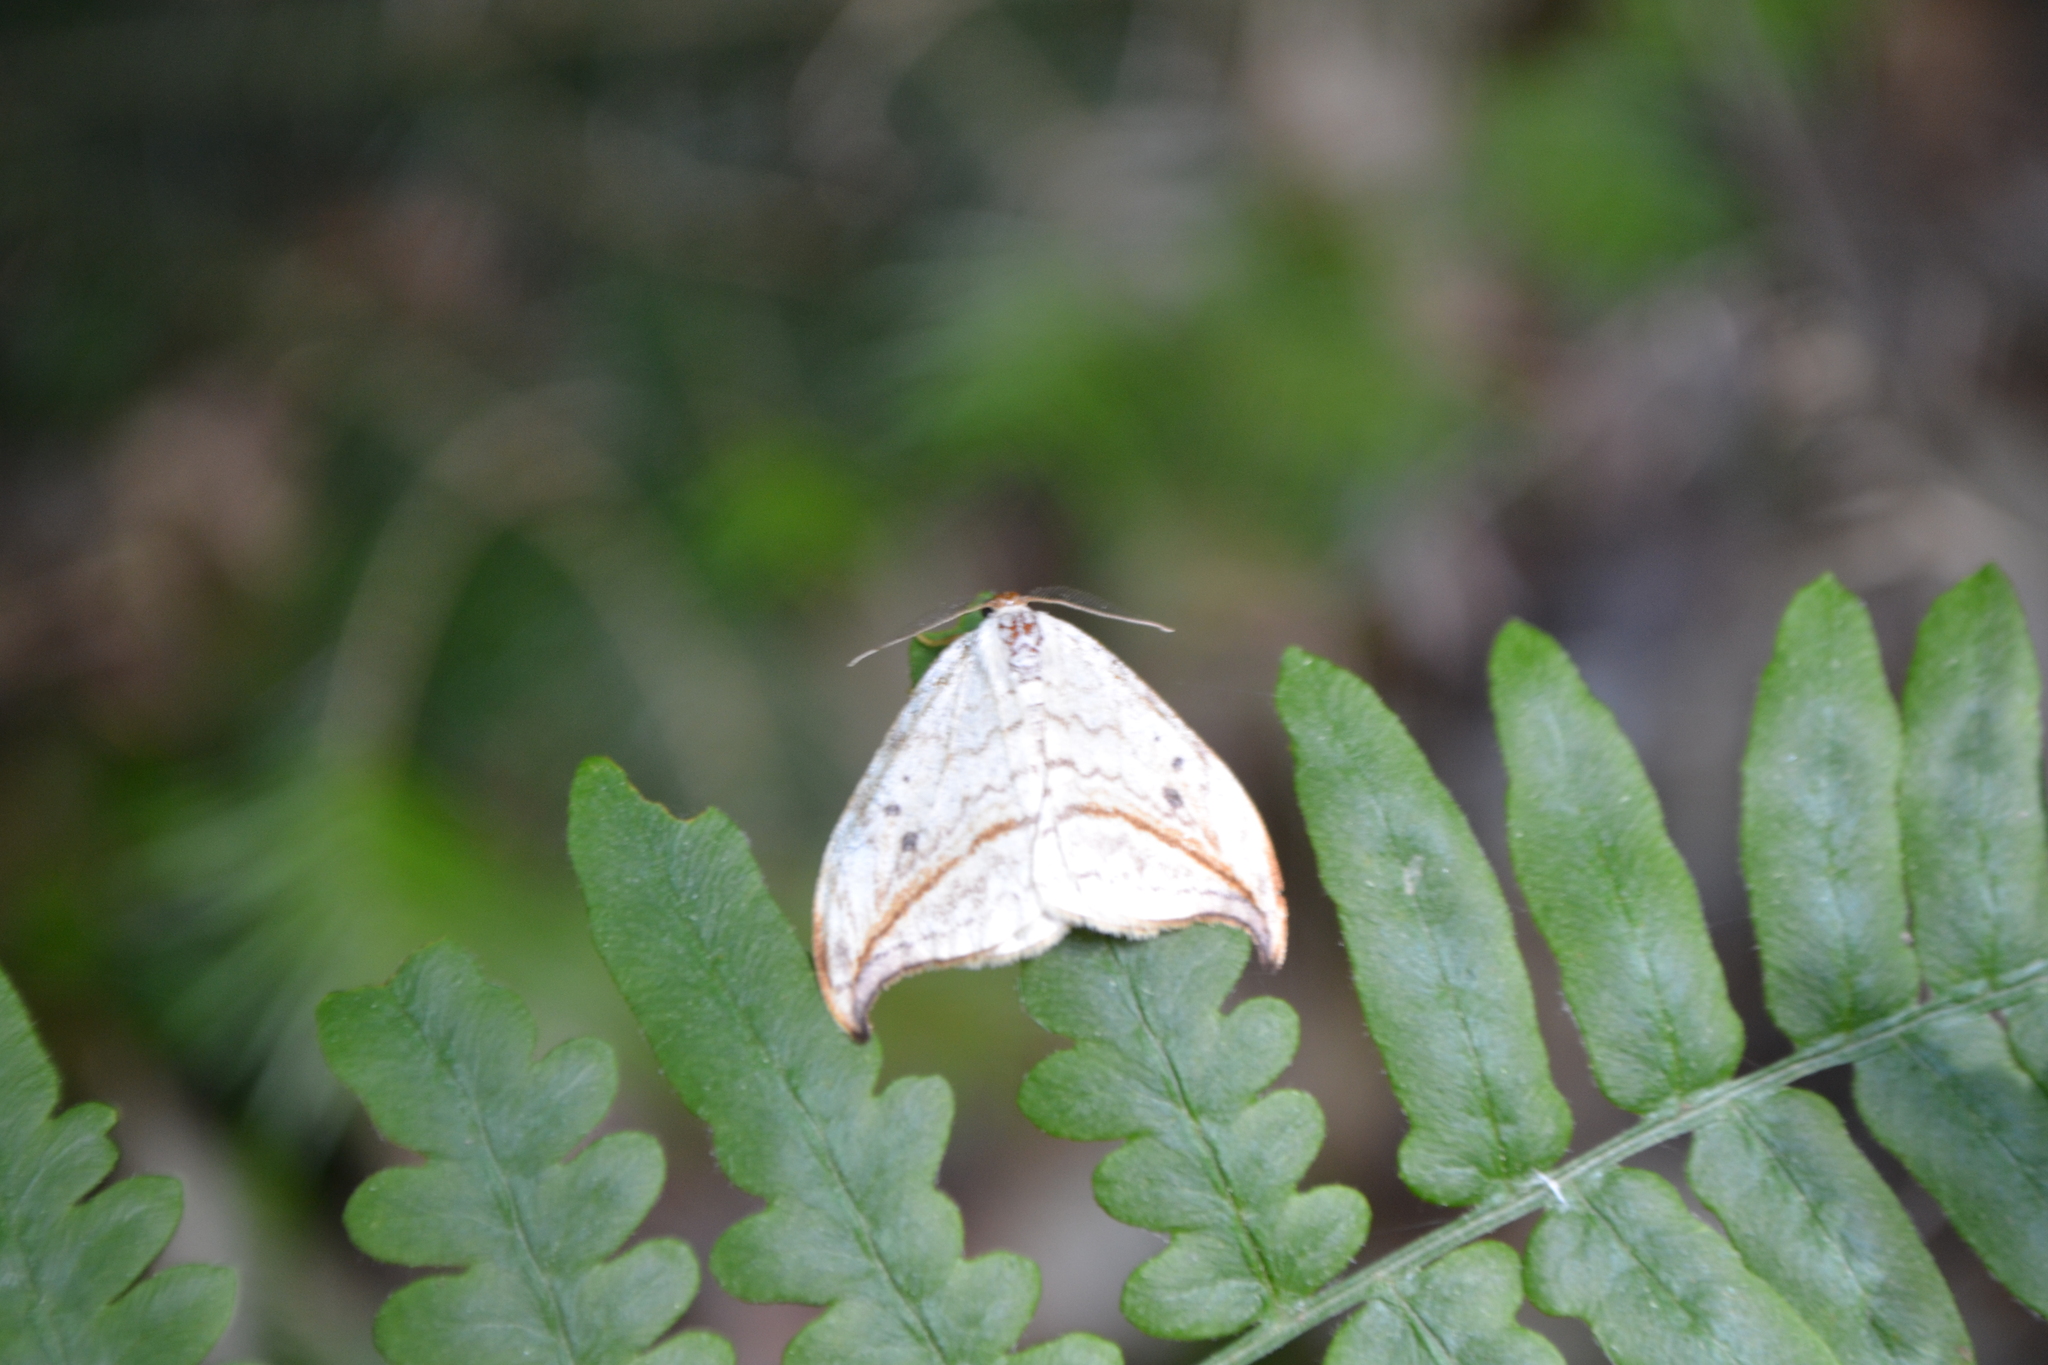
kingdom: Animalia
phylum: Arthropoda
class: Insecta
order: Lepidoptera
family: Drepanidae
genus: Drepana
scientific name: Drepana arcuata
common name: Arched hooktip moth
